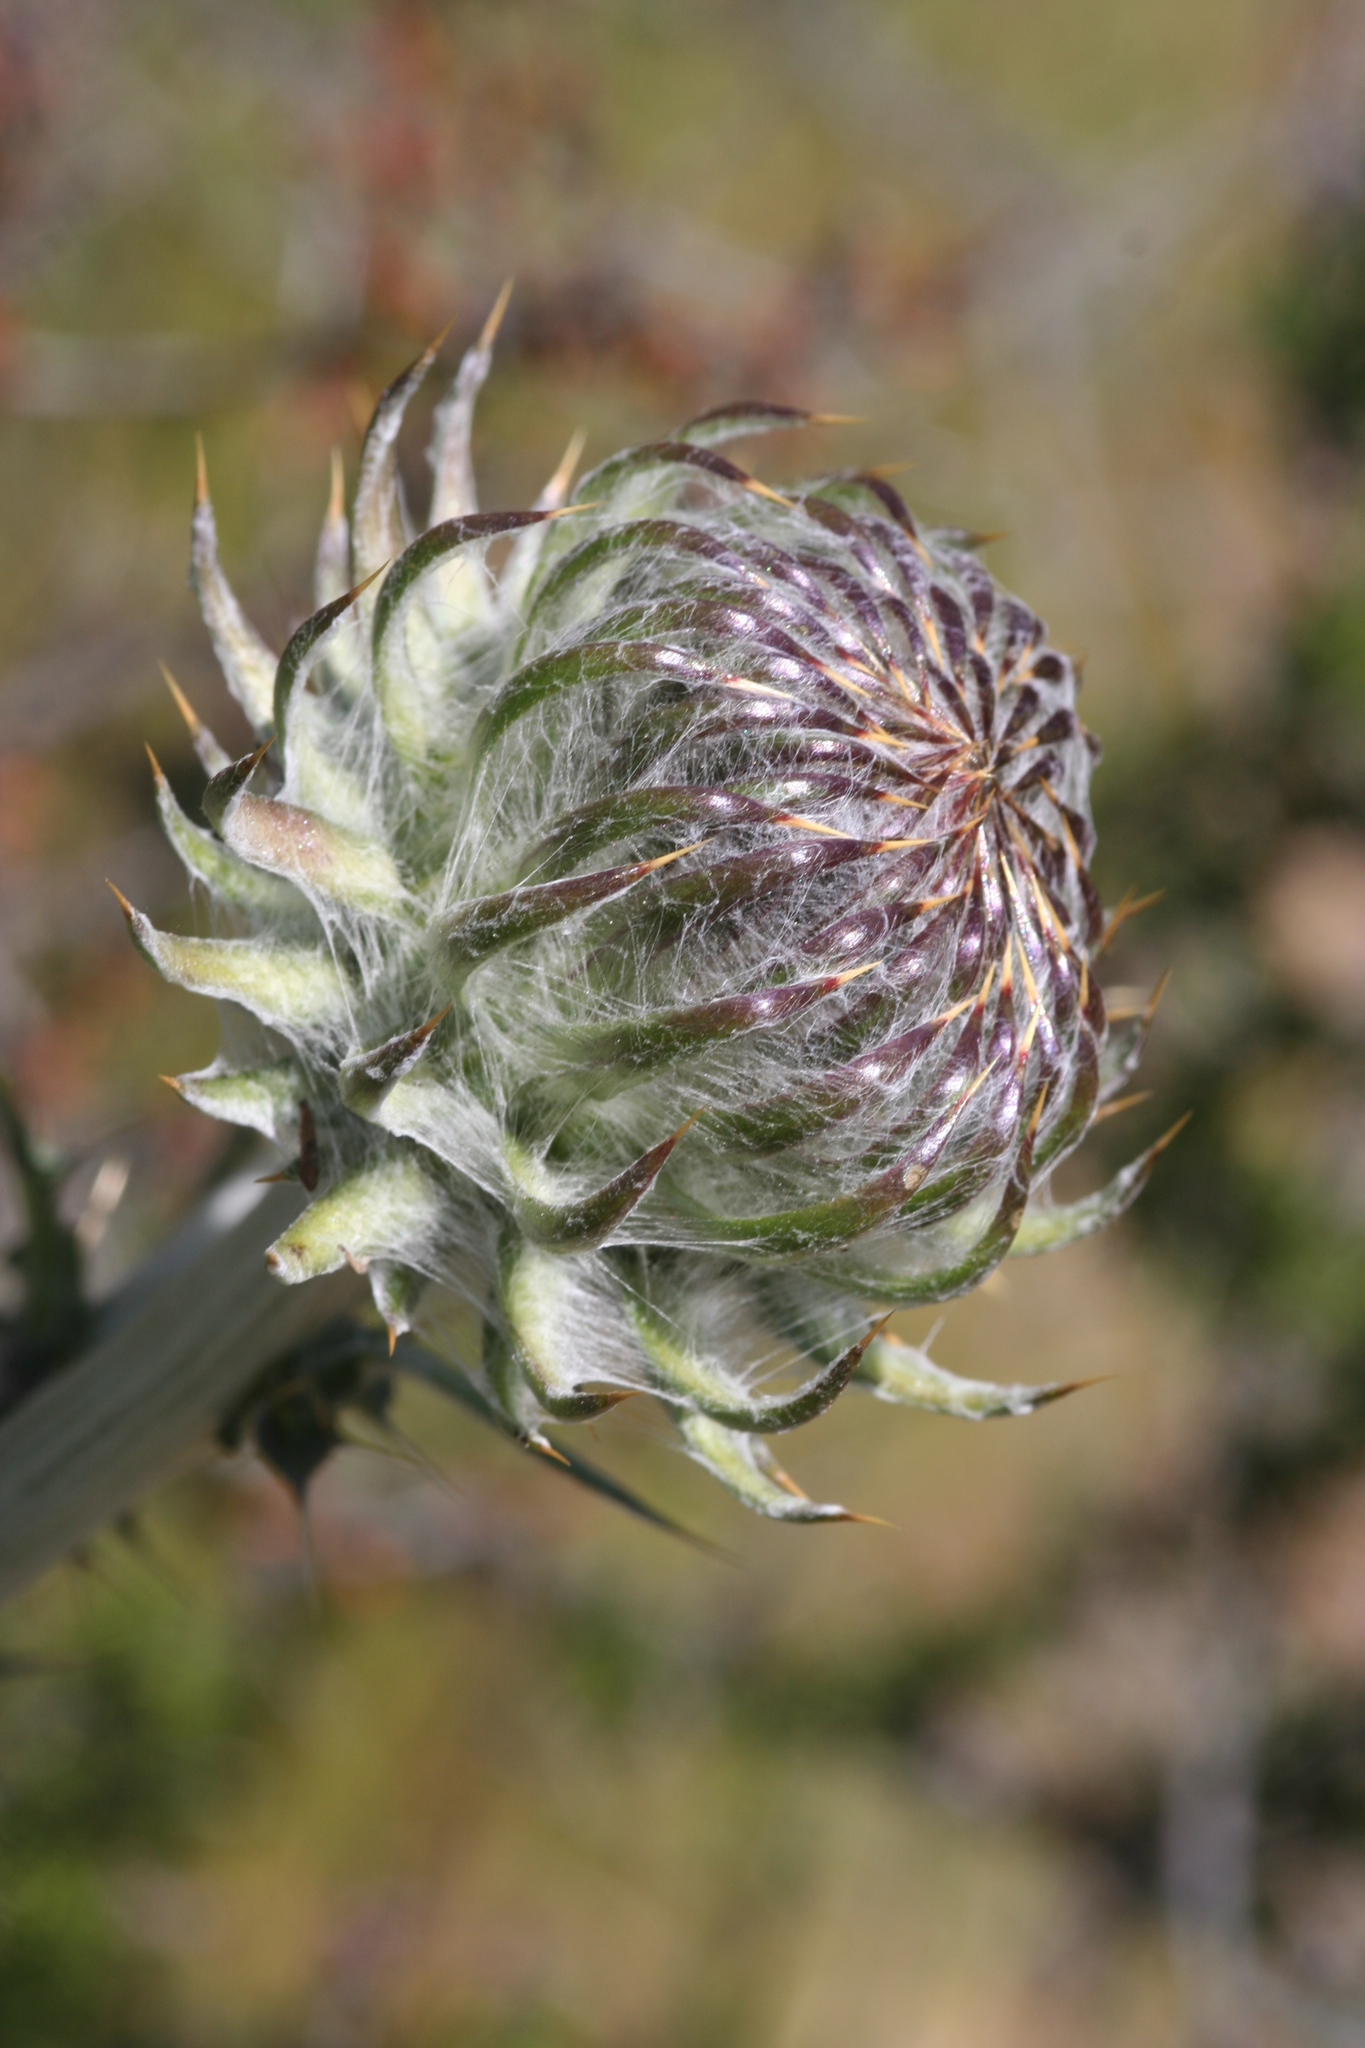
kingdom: Plantae
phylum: Tracheophyta
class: Magnoliopsida
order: Asterales
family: Asteraceae
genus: Cirsium
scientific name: Cirsium occidentale
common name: Western thistle
